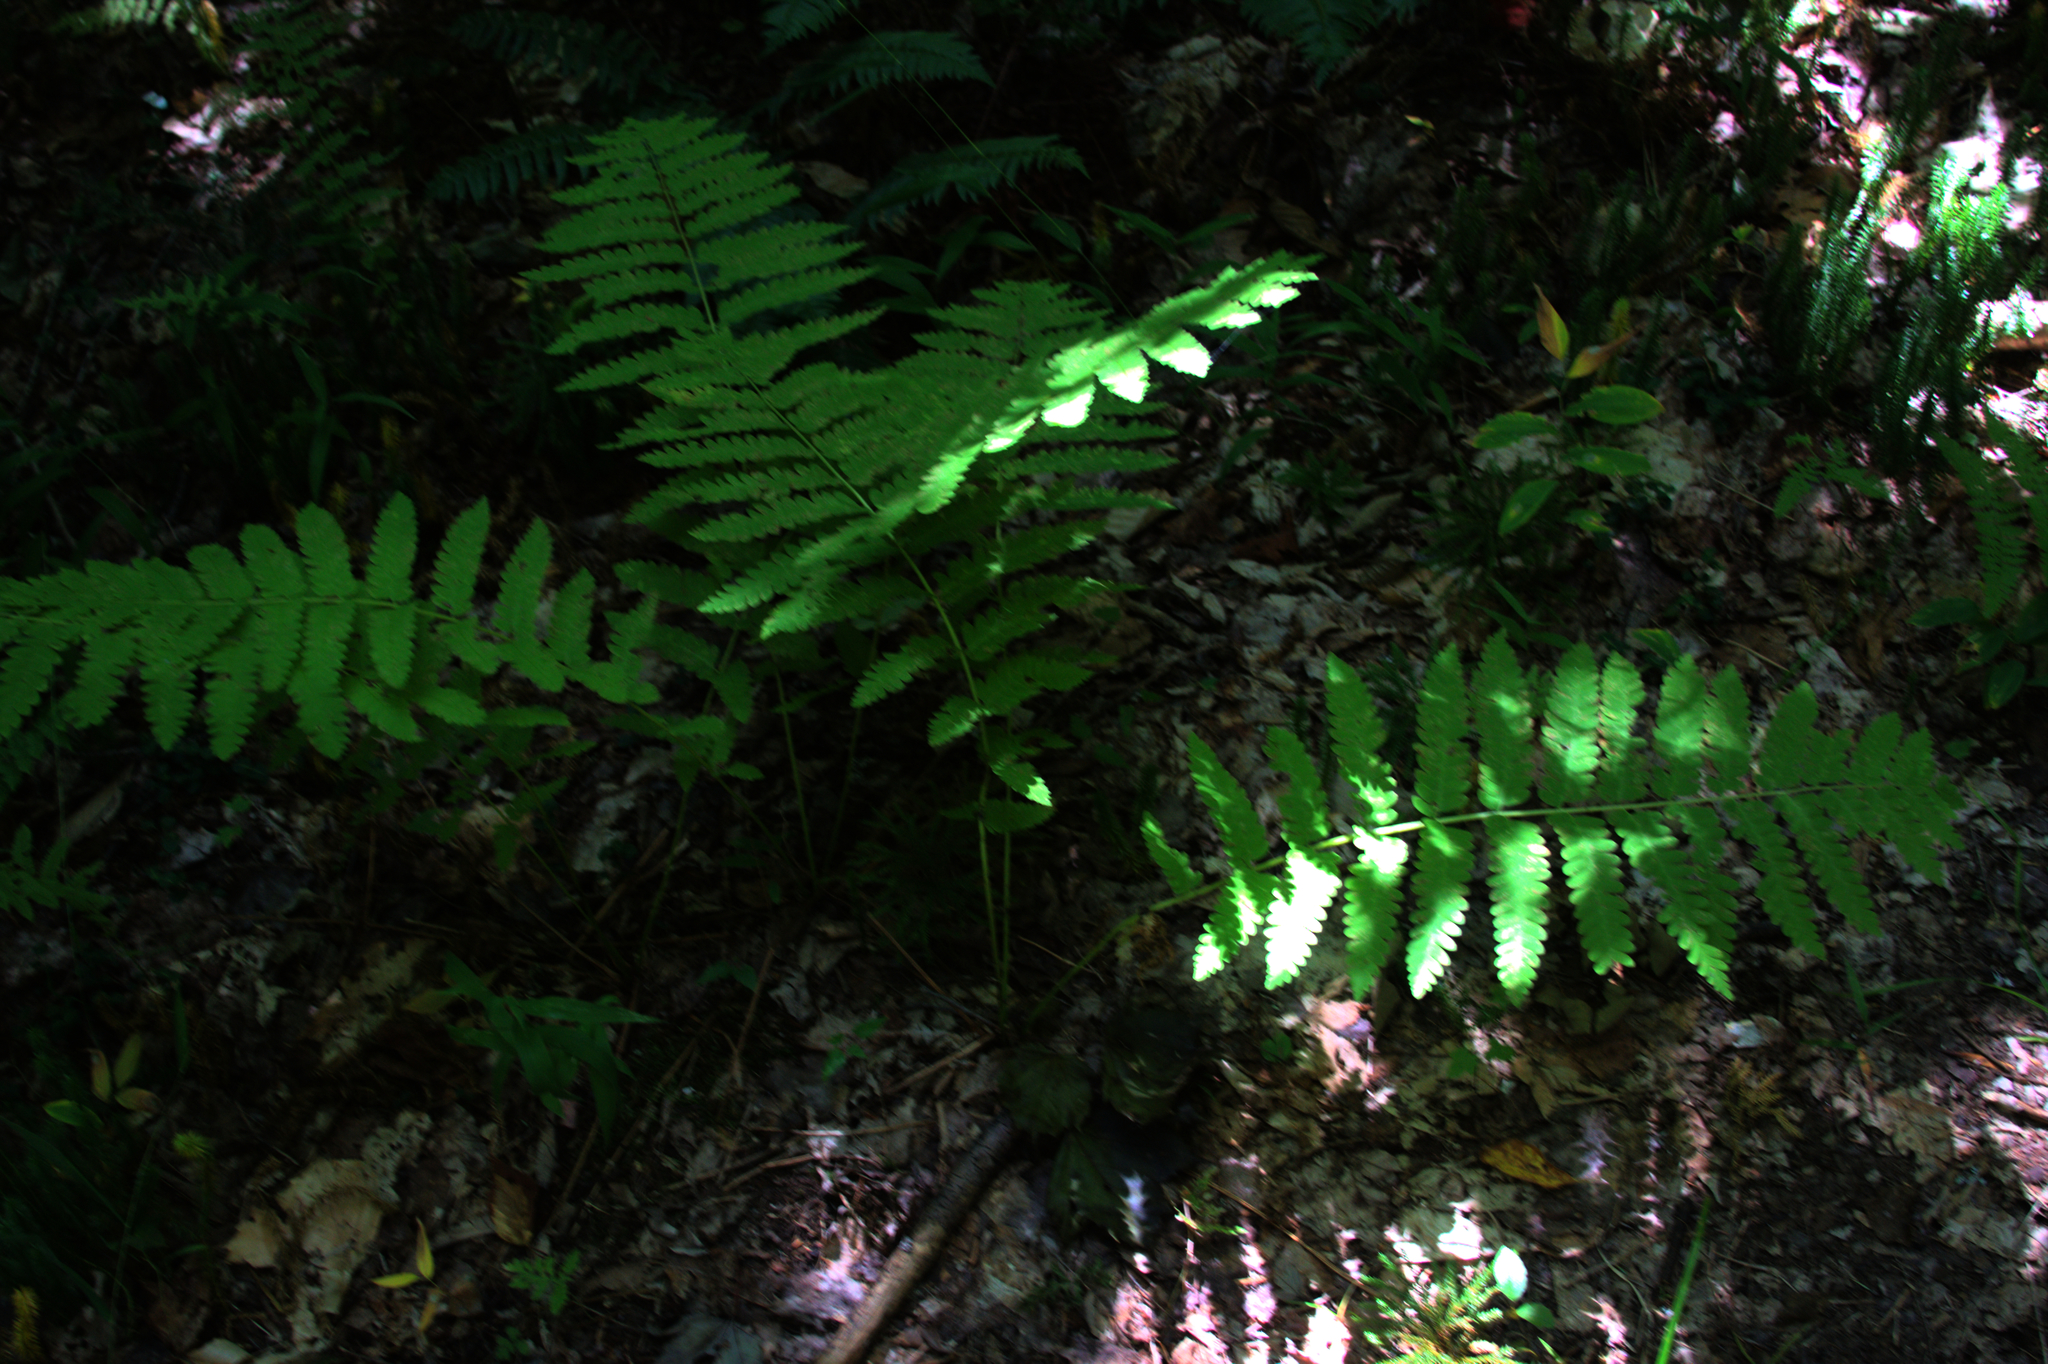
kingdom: Plantae
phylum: Tracheophyta
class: Polypodiopsida
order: Osmundales
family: Osmundaceae
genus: Claytosmunda
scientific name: Claytosmunda claytoniana
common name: Clayton's fern
